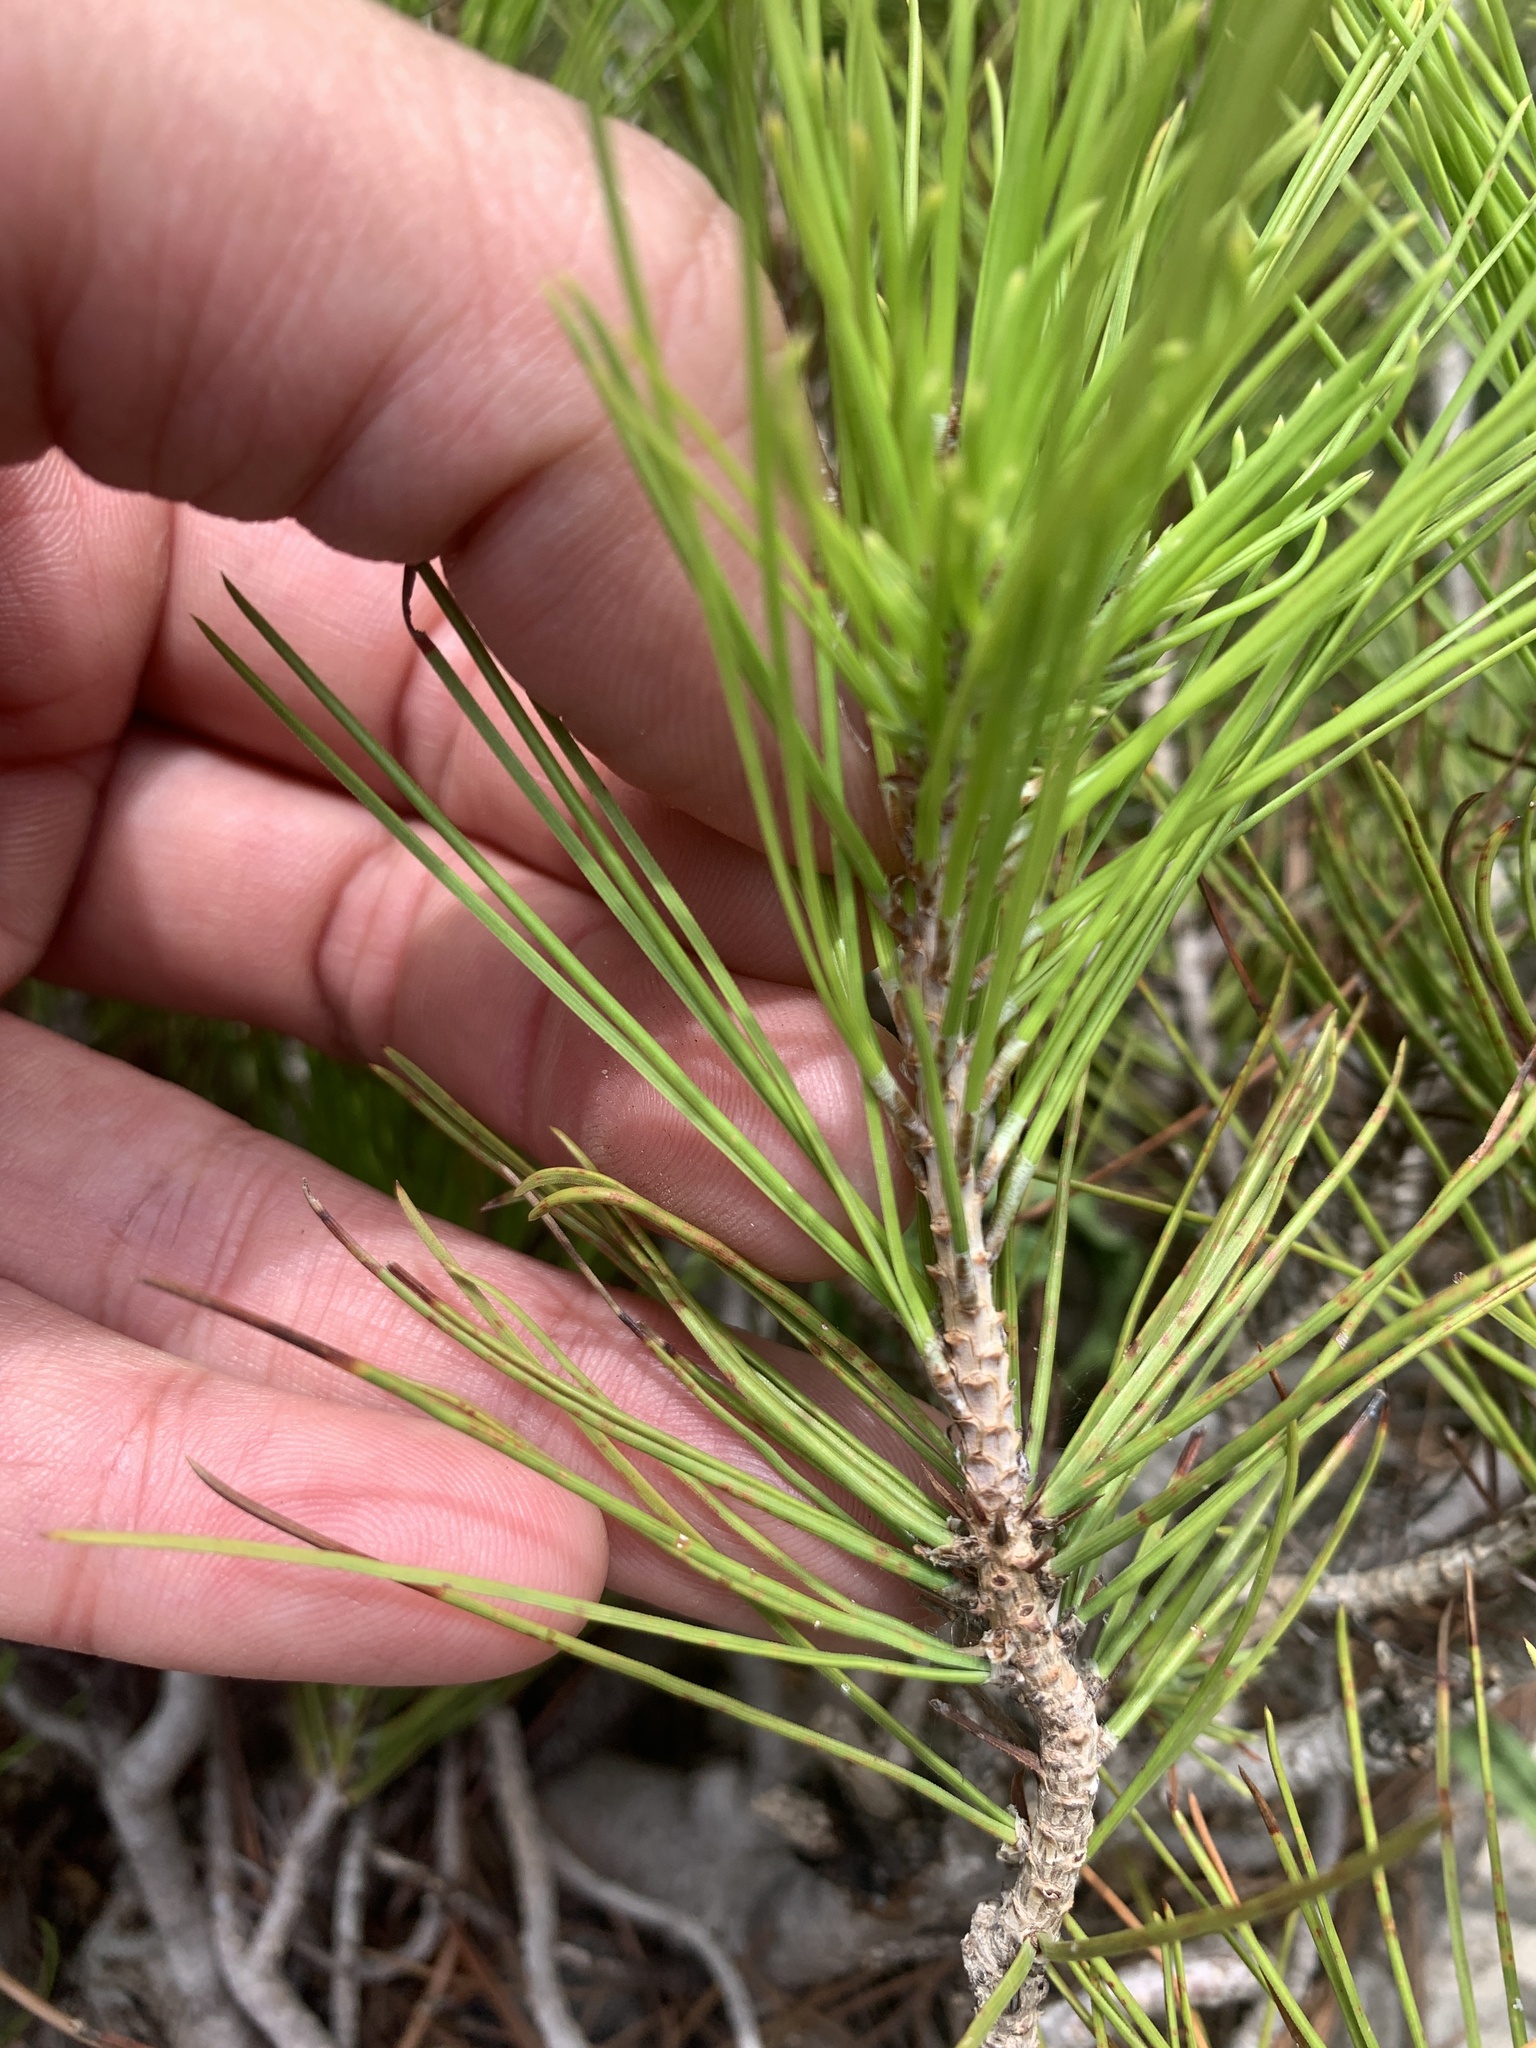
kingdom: Plantae
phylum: Tracheophyta
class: Pinopsida
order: Pinales
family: Pinaceae
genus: Pinus
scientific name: Pinus halepensis
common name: Aleppo pine
